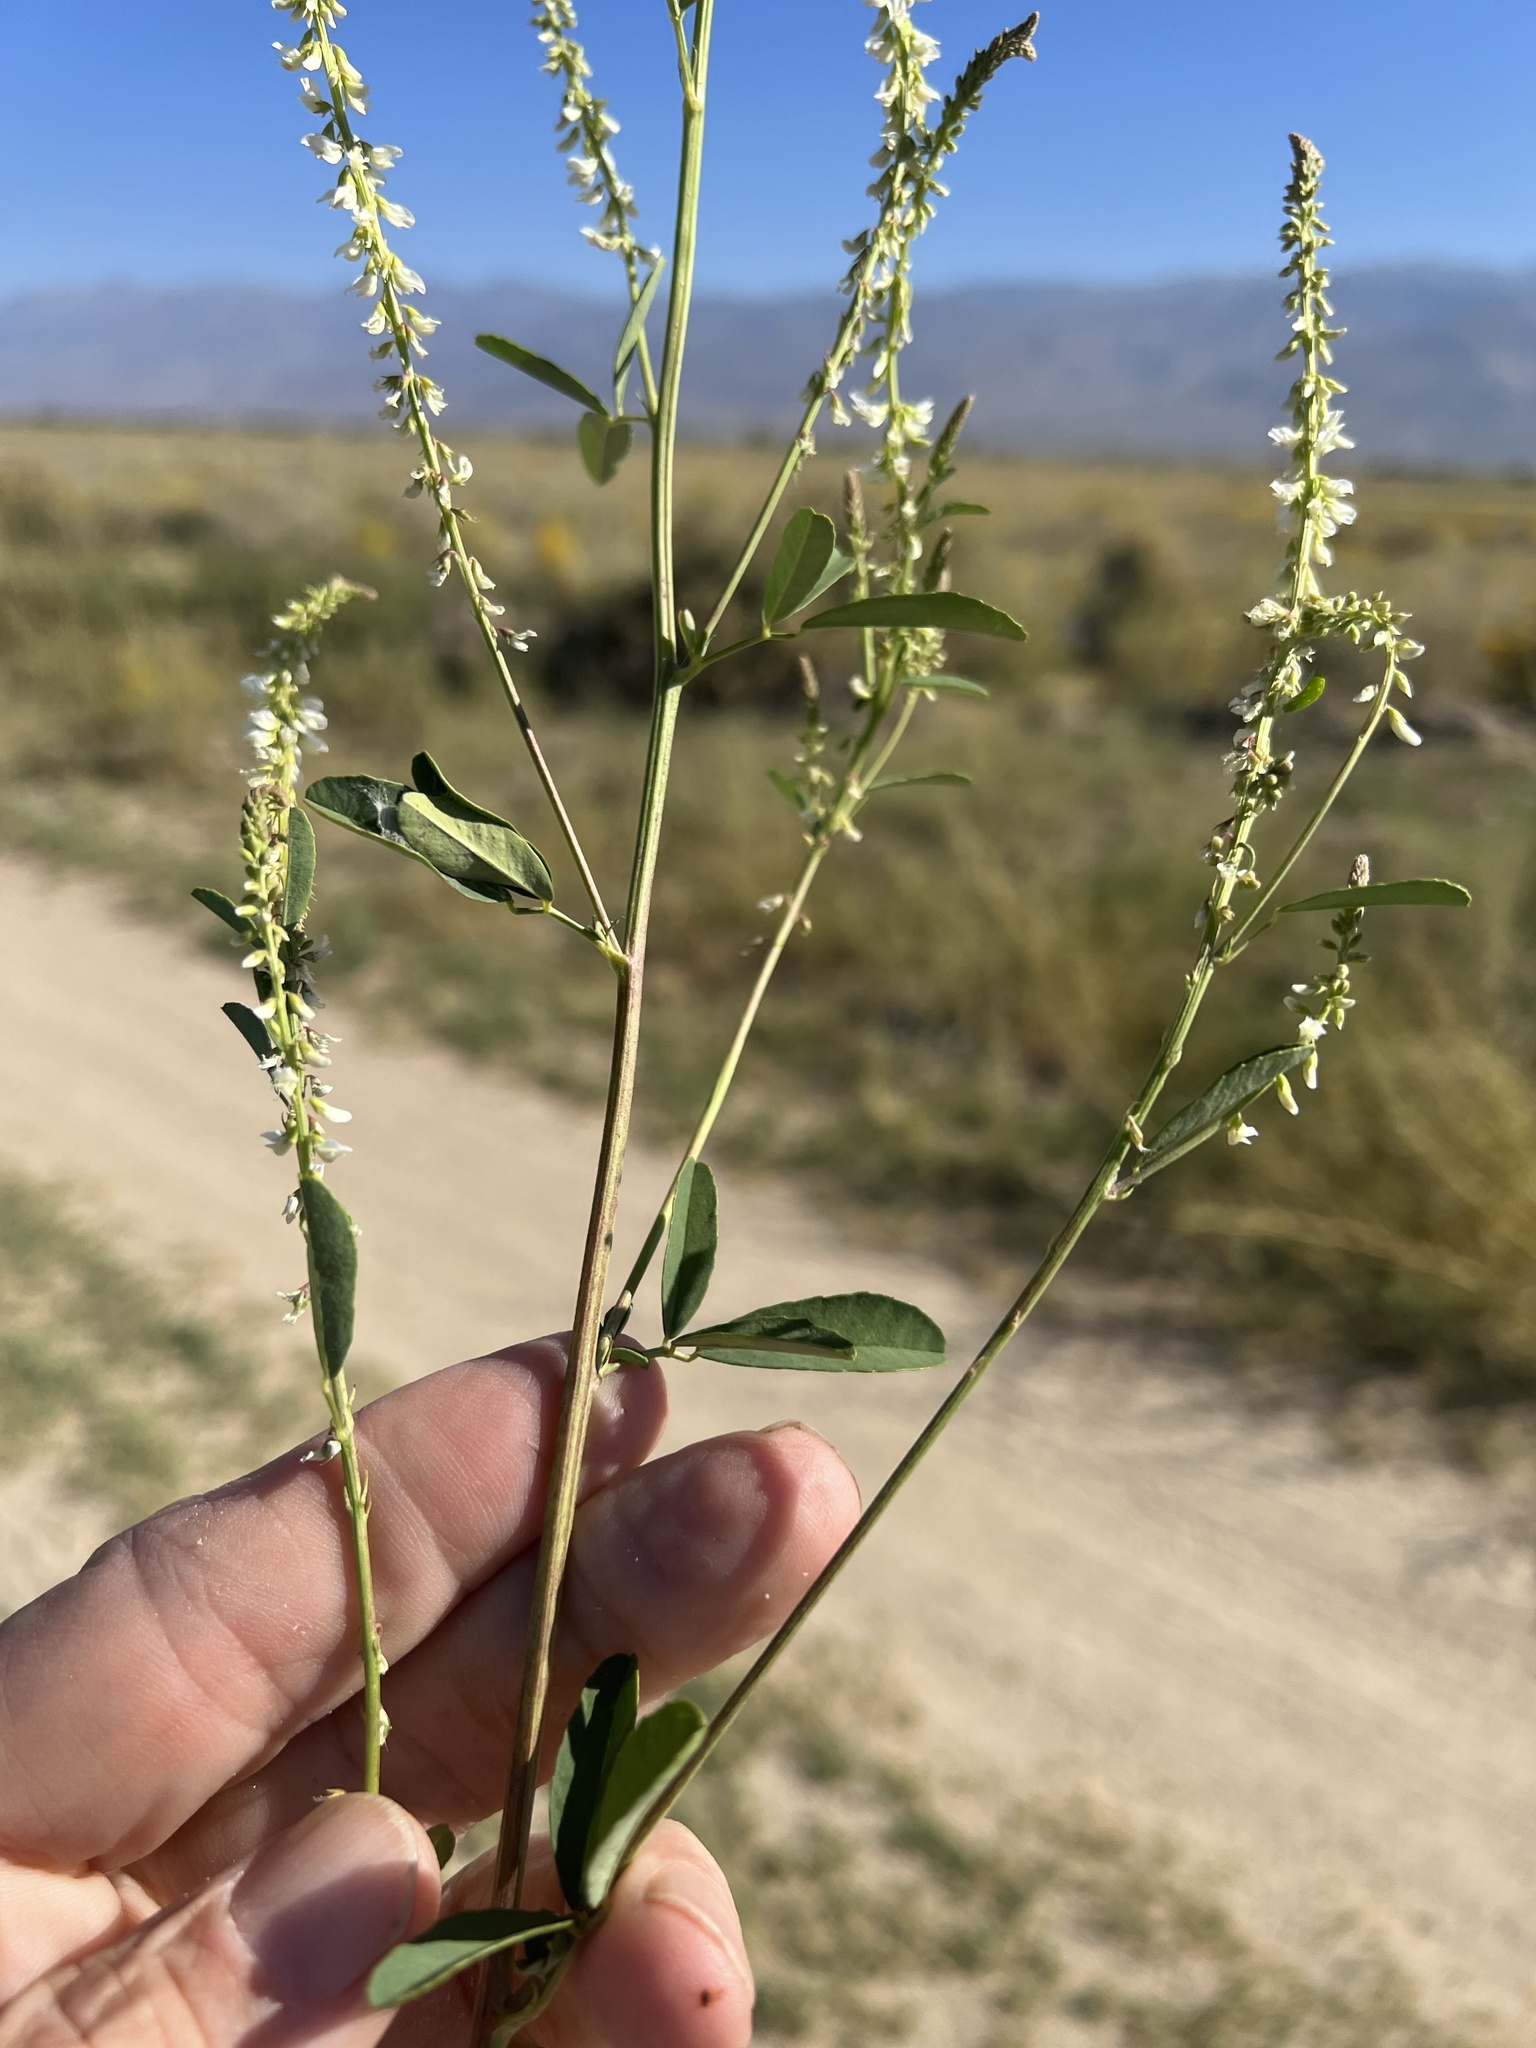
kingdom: Plantae
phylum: Tracheophyta
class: Magnoliopsida
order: Fabales
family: Fabaceae
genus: Melilotus
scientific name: Melilotus albus
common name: White melilot
